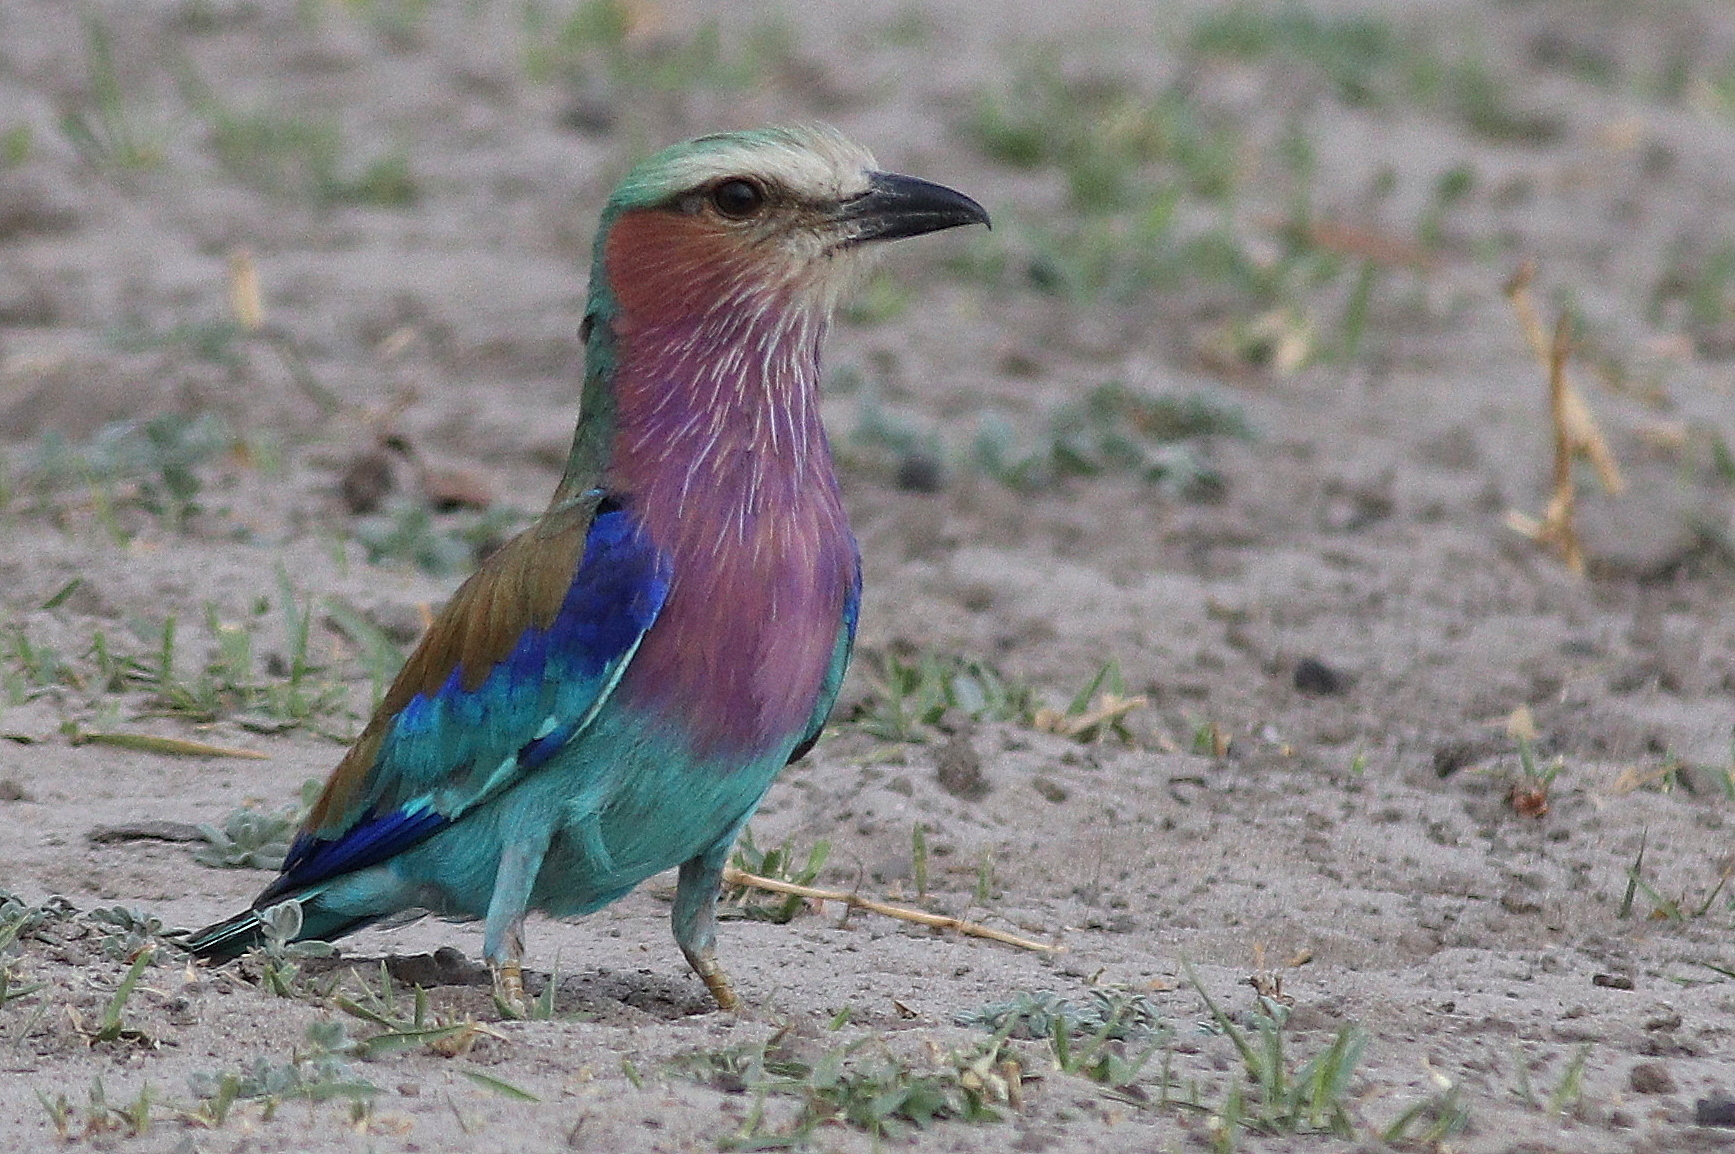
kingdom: Animalia
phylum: Chordata
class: Aves
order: Coraciiformes
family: Coraciidae
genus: Coracias
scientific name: Coracias caudatus
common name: Lilac-breasted roller
